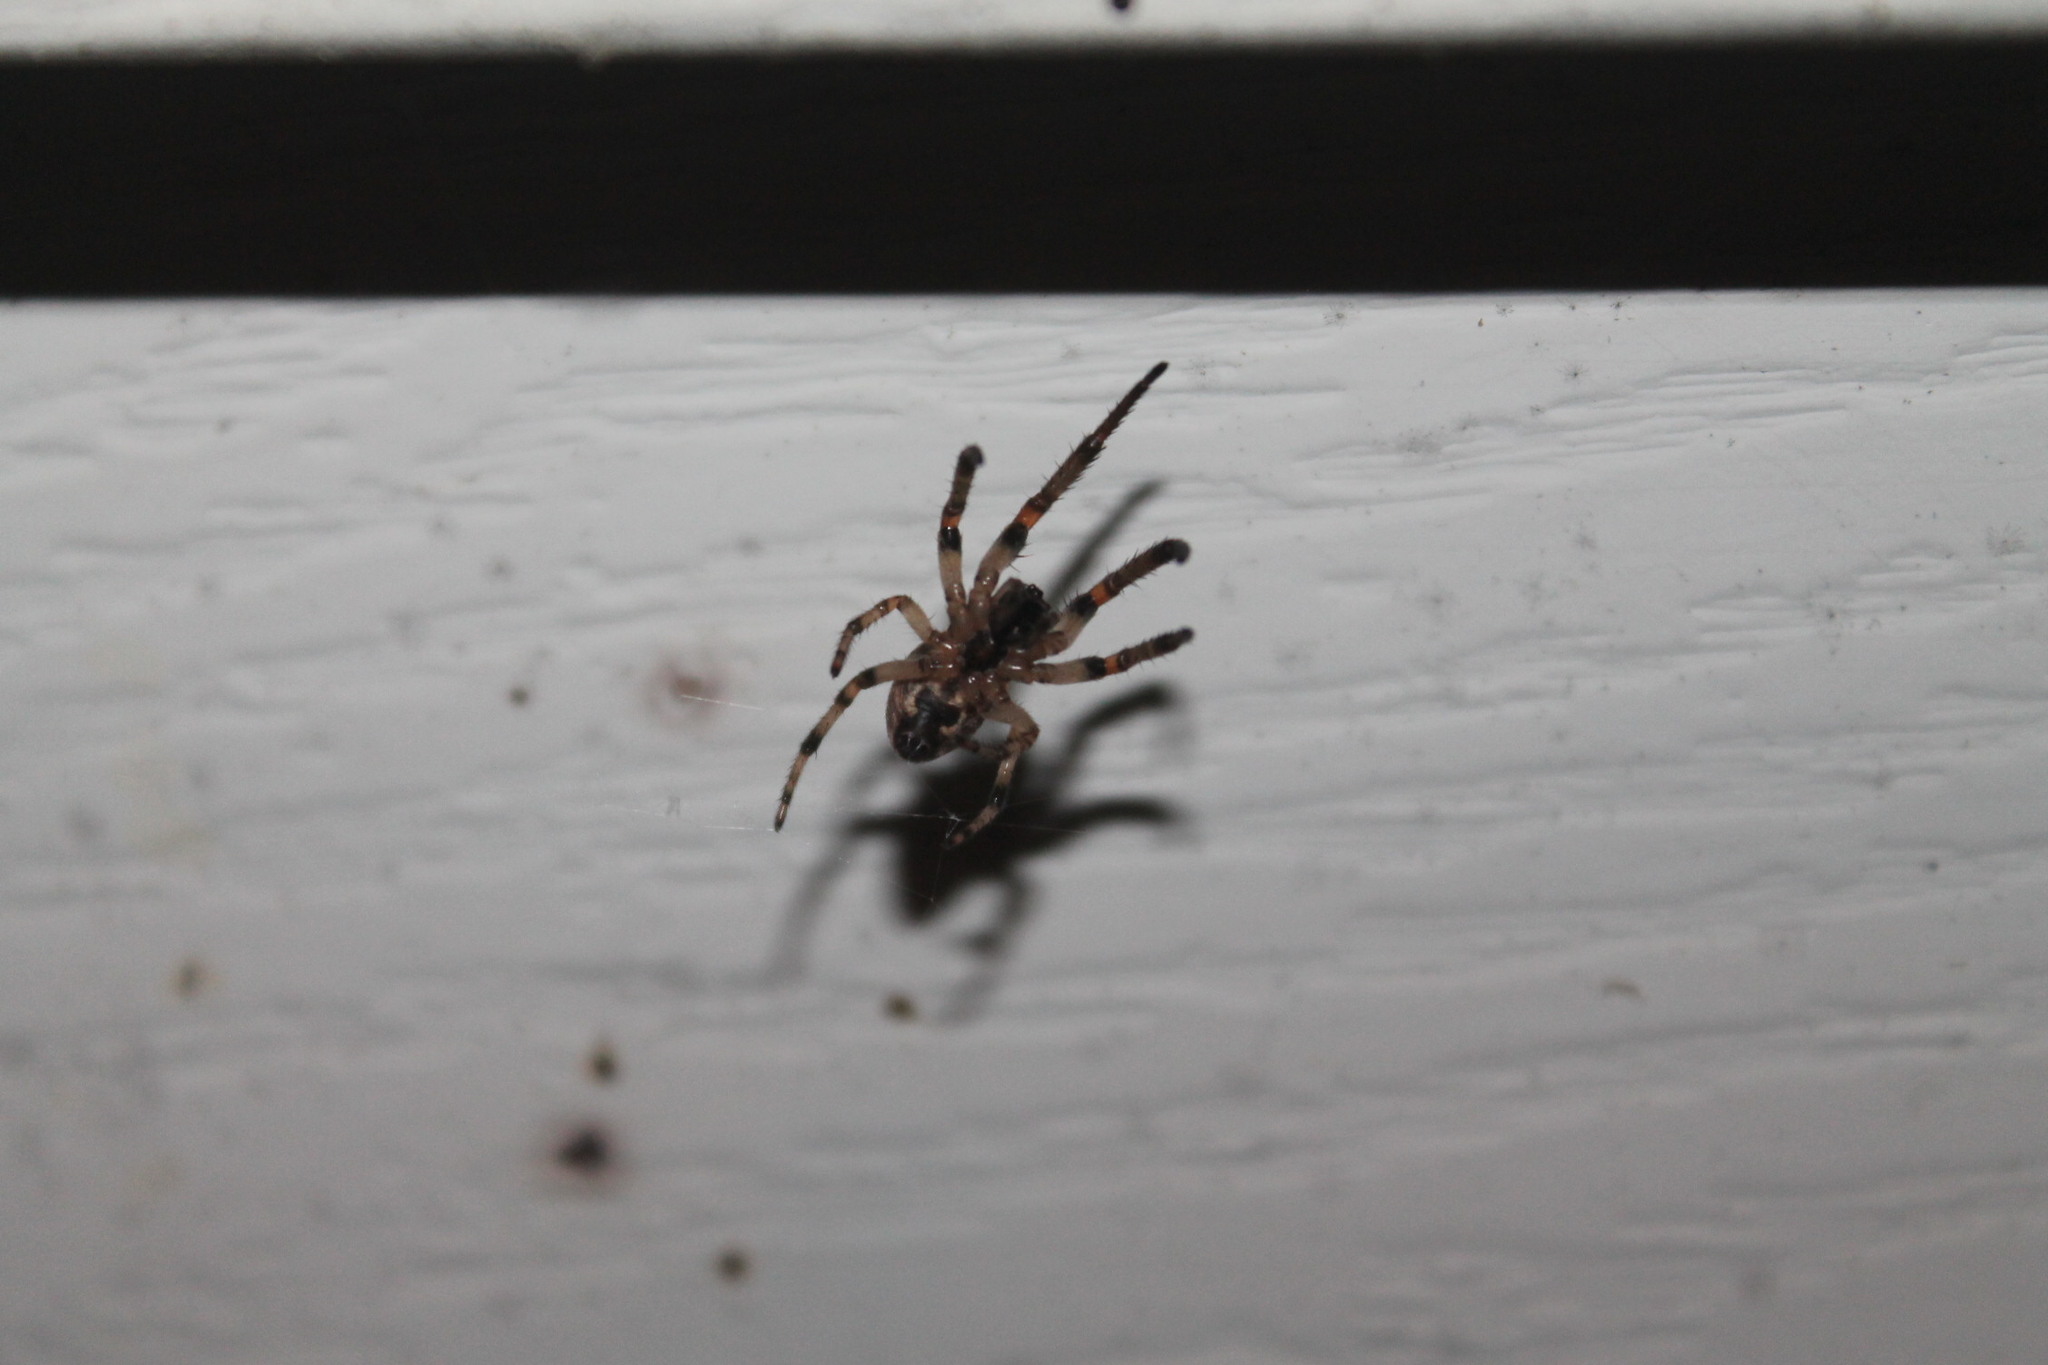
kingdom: Animalia
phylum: Arthropoda
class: Arachnida
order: Araneae
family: Araneidae
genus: Larinioides
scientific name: Larinioides cornutus
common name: Furrow orbweaver
